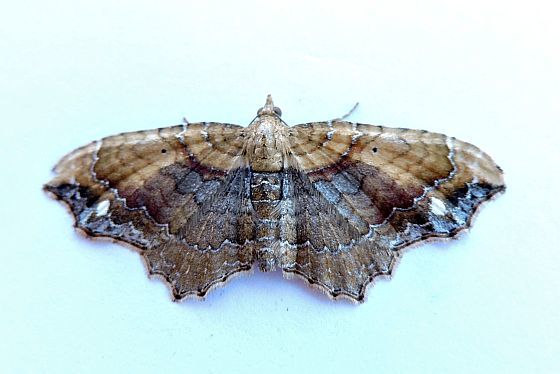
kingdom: Animalia
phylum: Arthropoda
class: Insecta
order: Lepidoptera
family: Geometridae
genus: Orthonama
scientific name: Orthonama gracea
